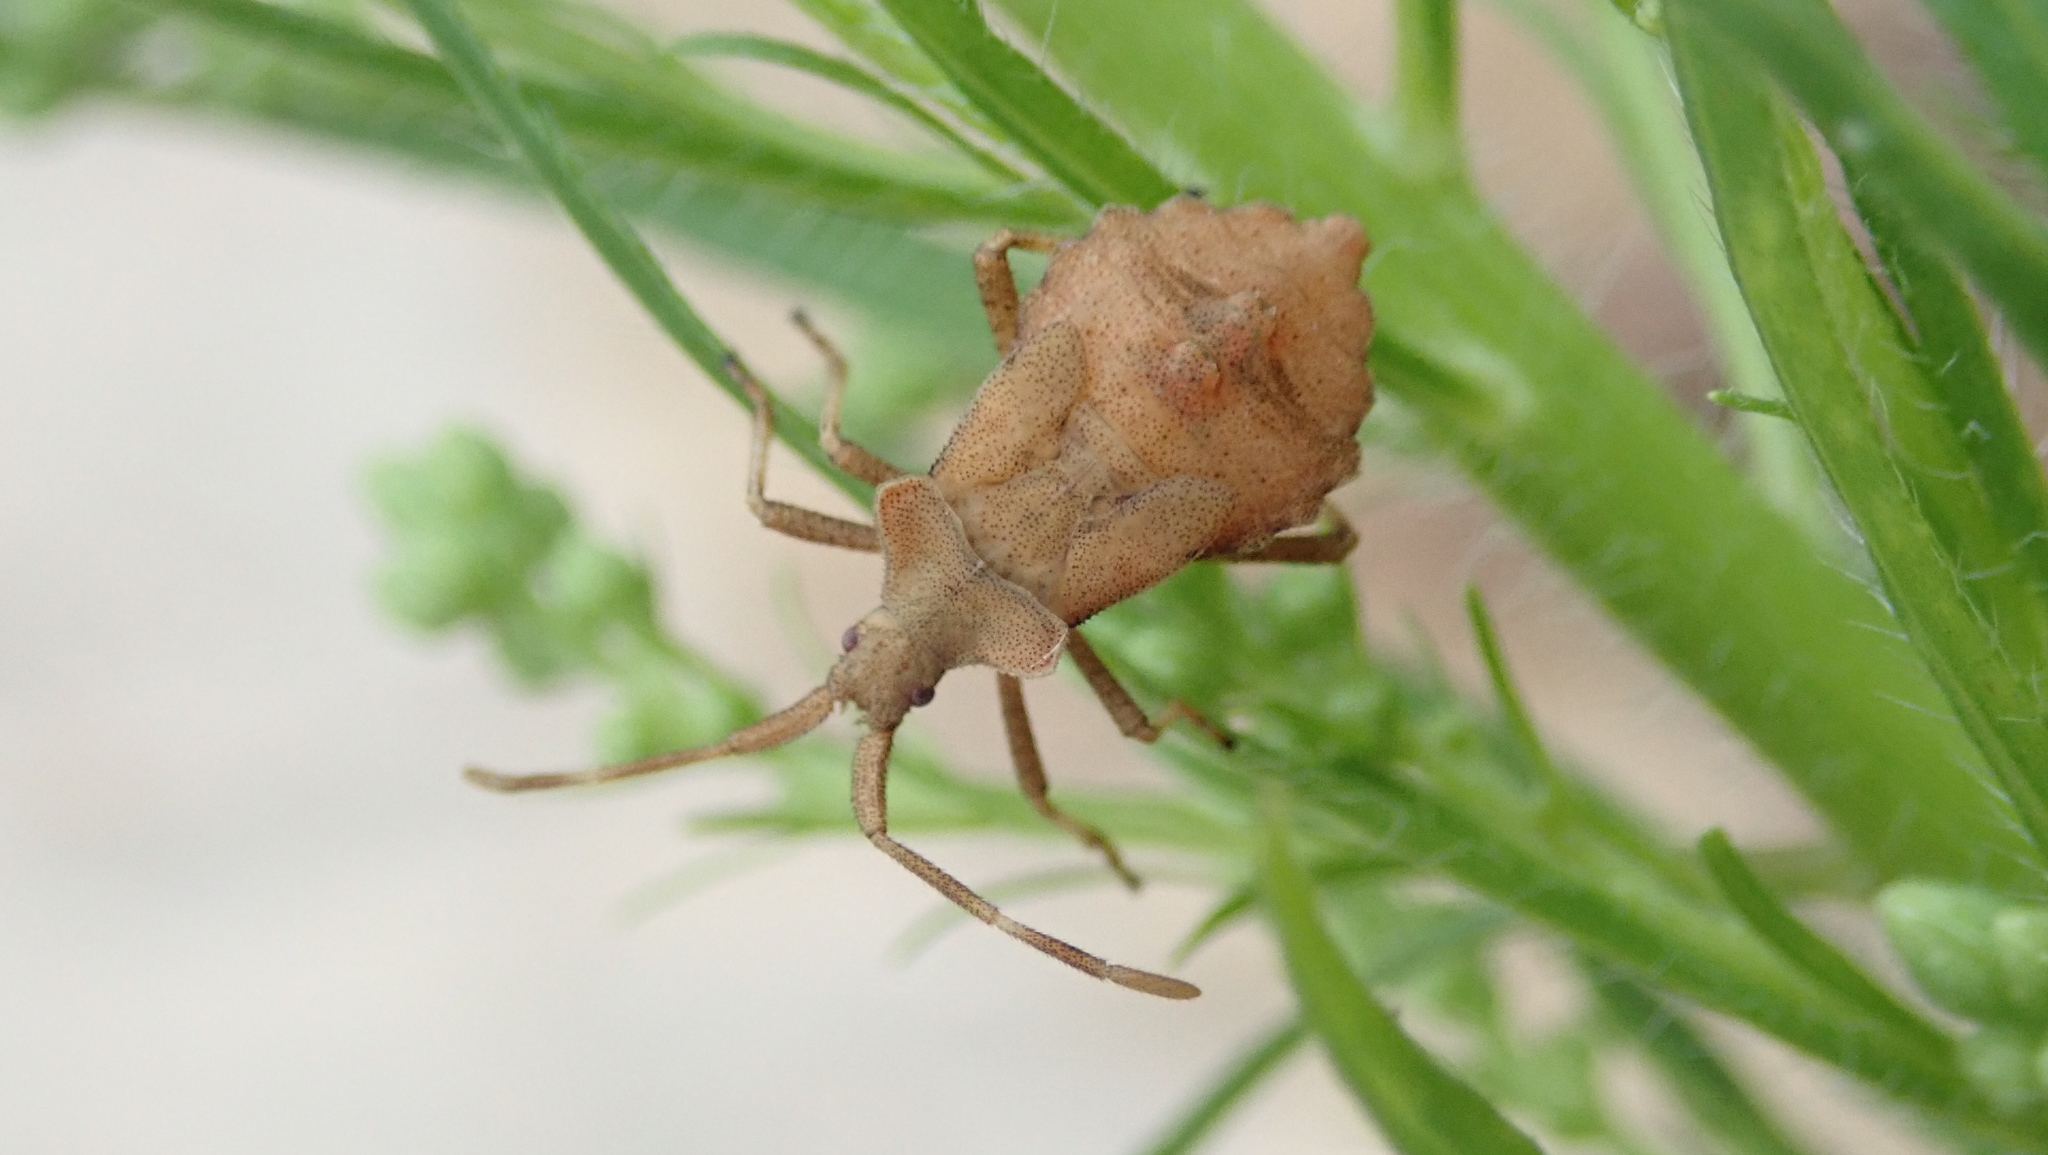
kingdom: Animalia
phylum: Arthropoda
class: Insecta
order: Hemiptera
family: Coreidae
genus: Coreus
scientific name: Coreus marginatus
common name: Dock bug
